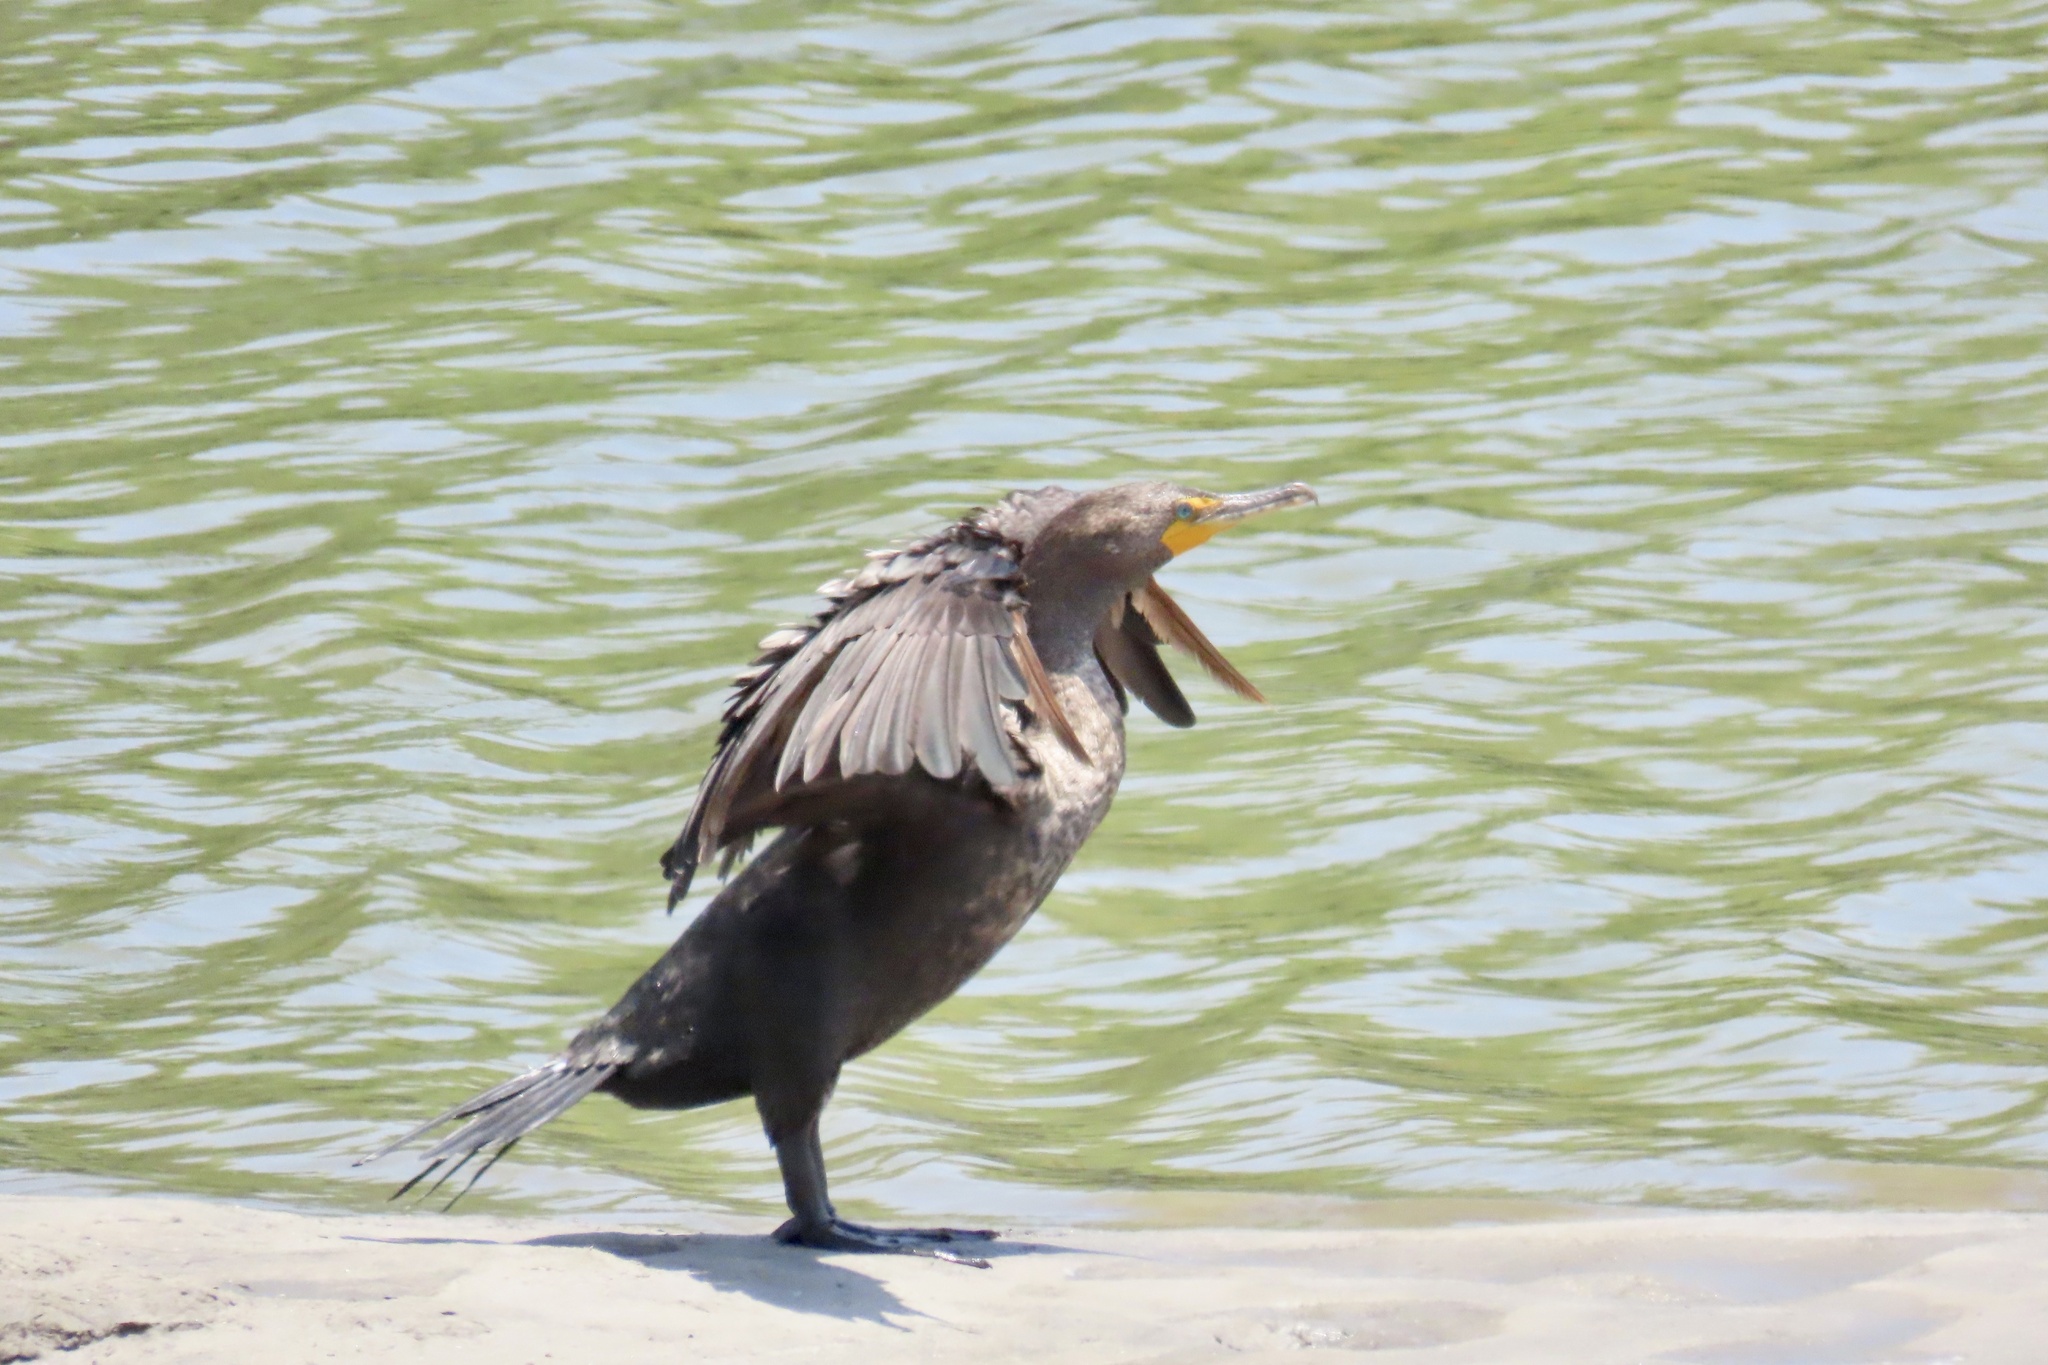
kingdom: Animalia
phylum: Chordata
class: Aves
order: Suliformes
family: Phalacrocoracidae
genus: Phalacrocorax
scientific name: Phalacrocorax auritus
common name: Double-crested cormorant
